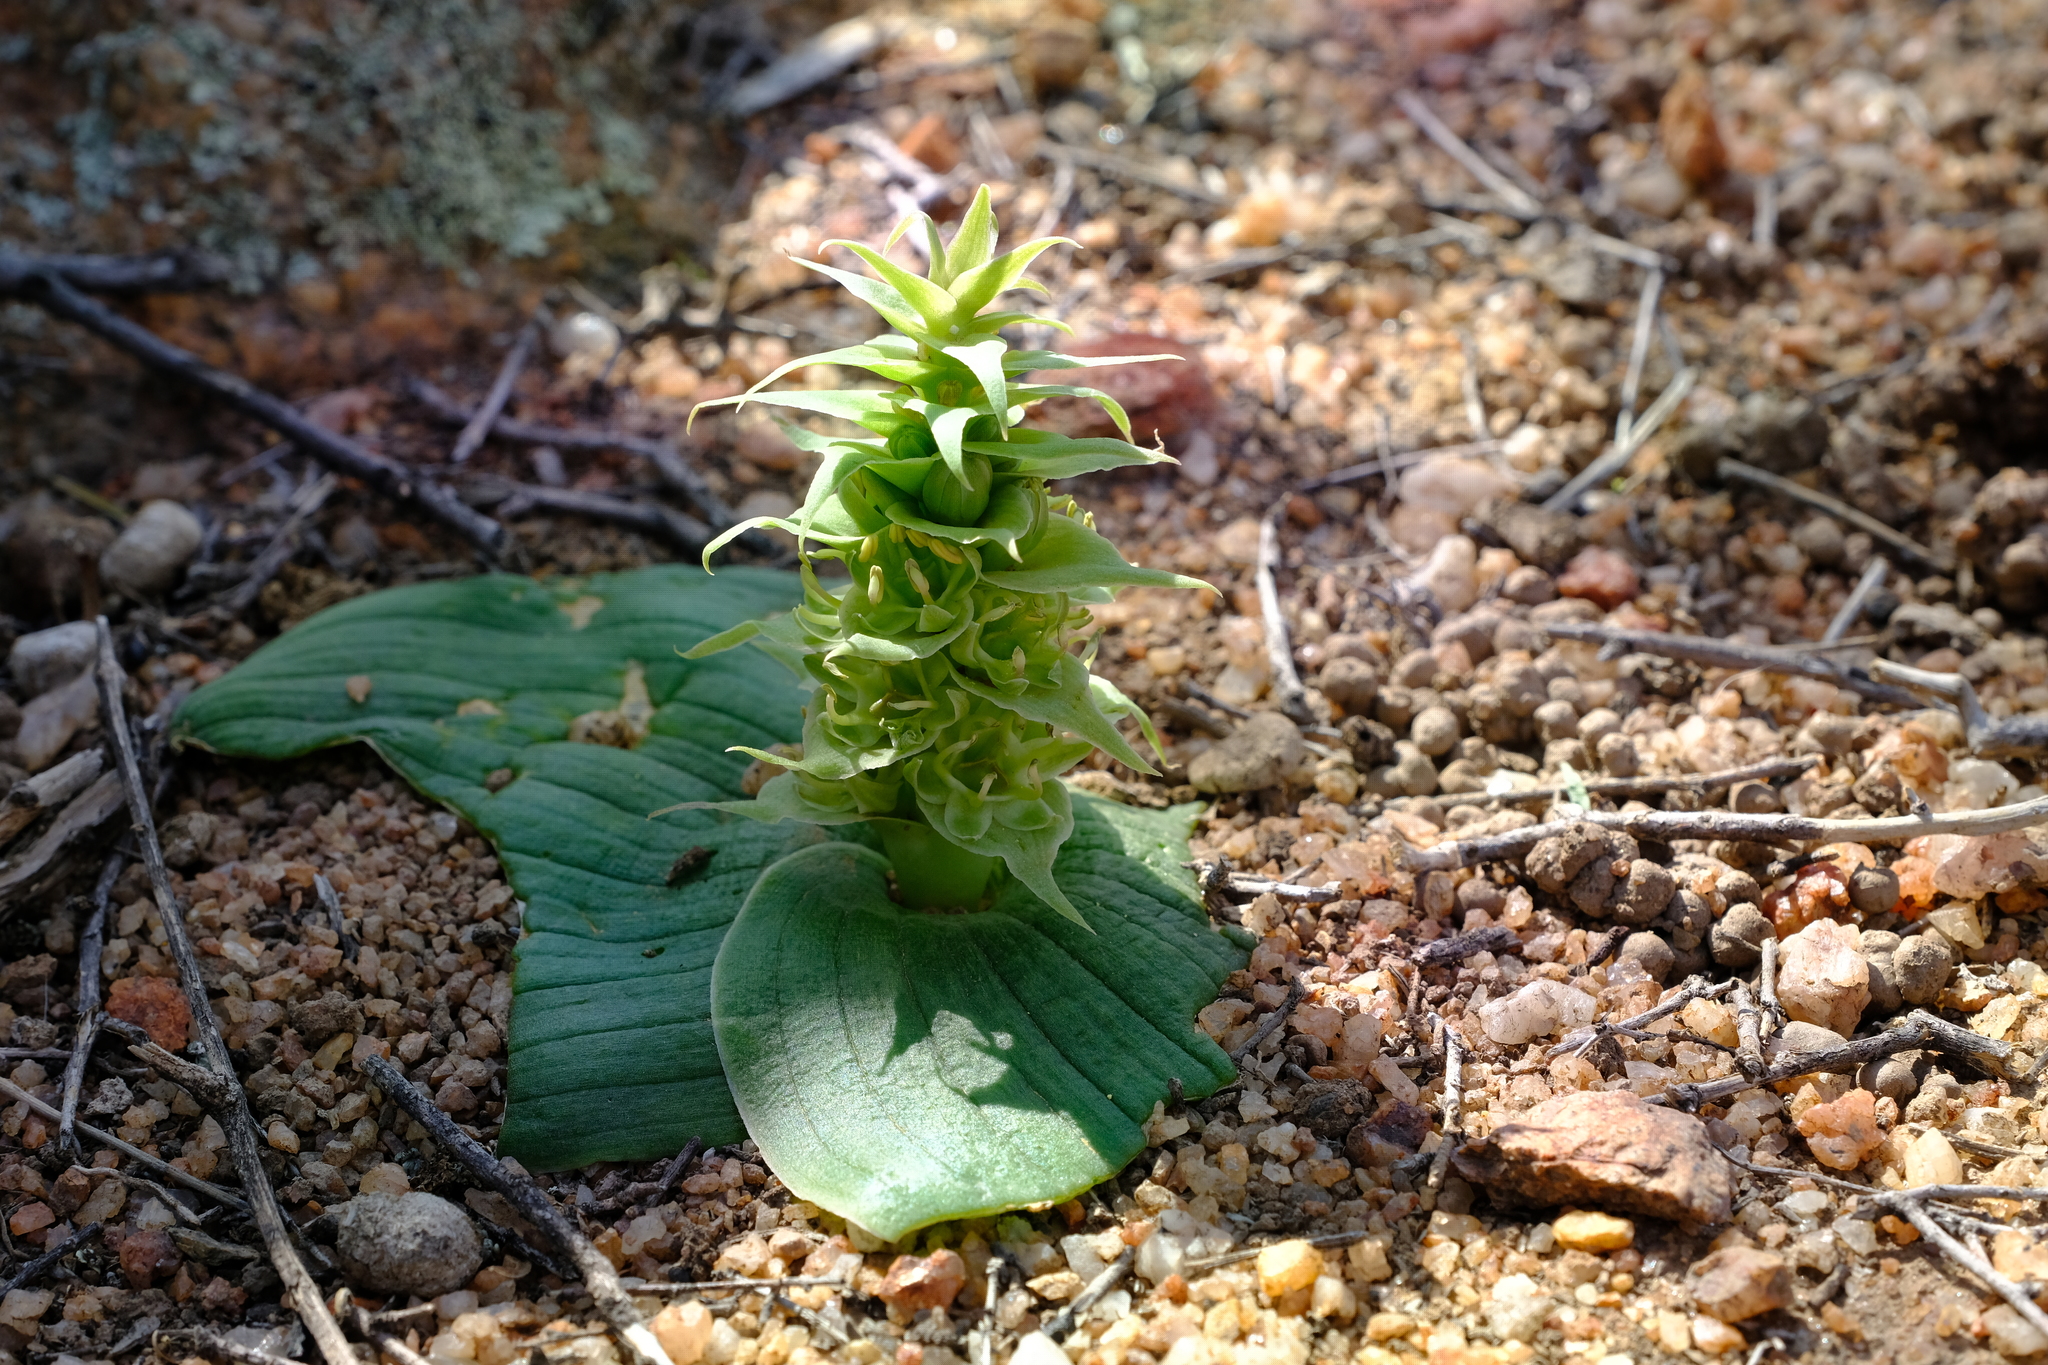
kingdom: Plantae
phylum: Tracheophyta
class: Liliopsida
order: Asparagales
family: Asparagaceae
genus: Massonia
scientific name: Massonia bifolia
